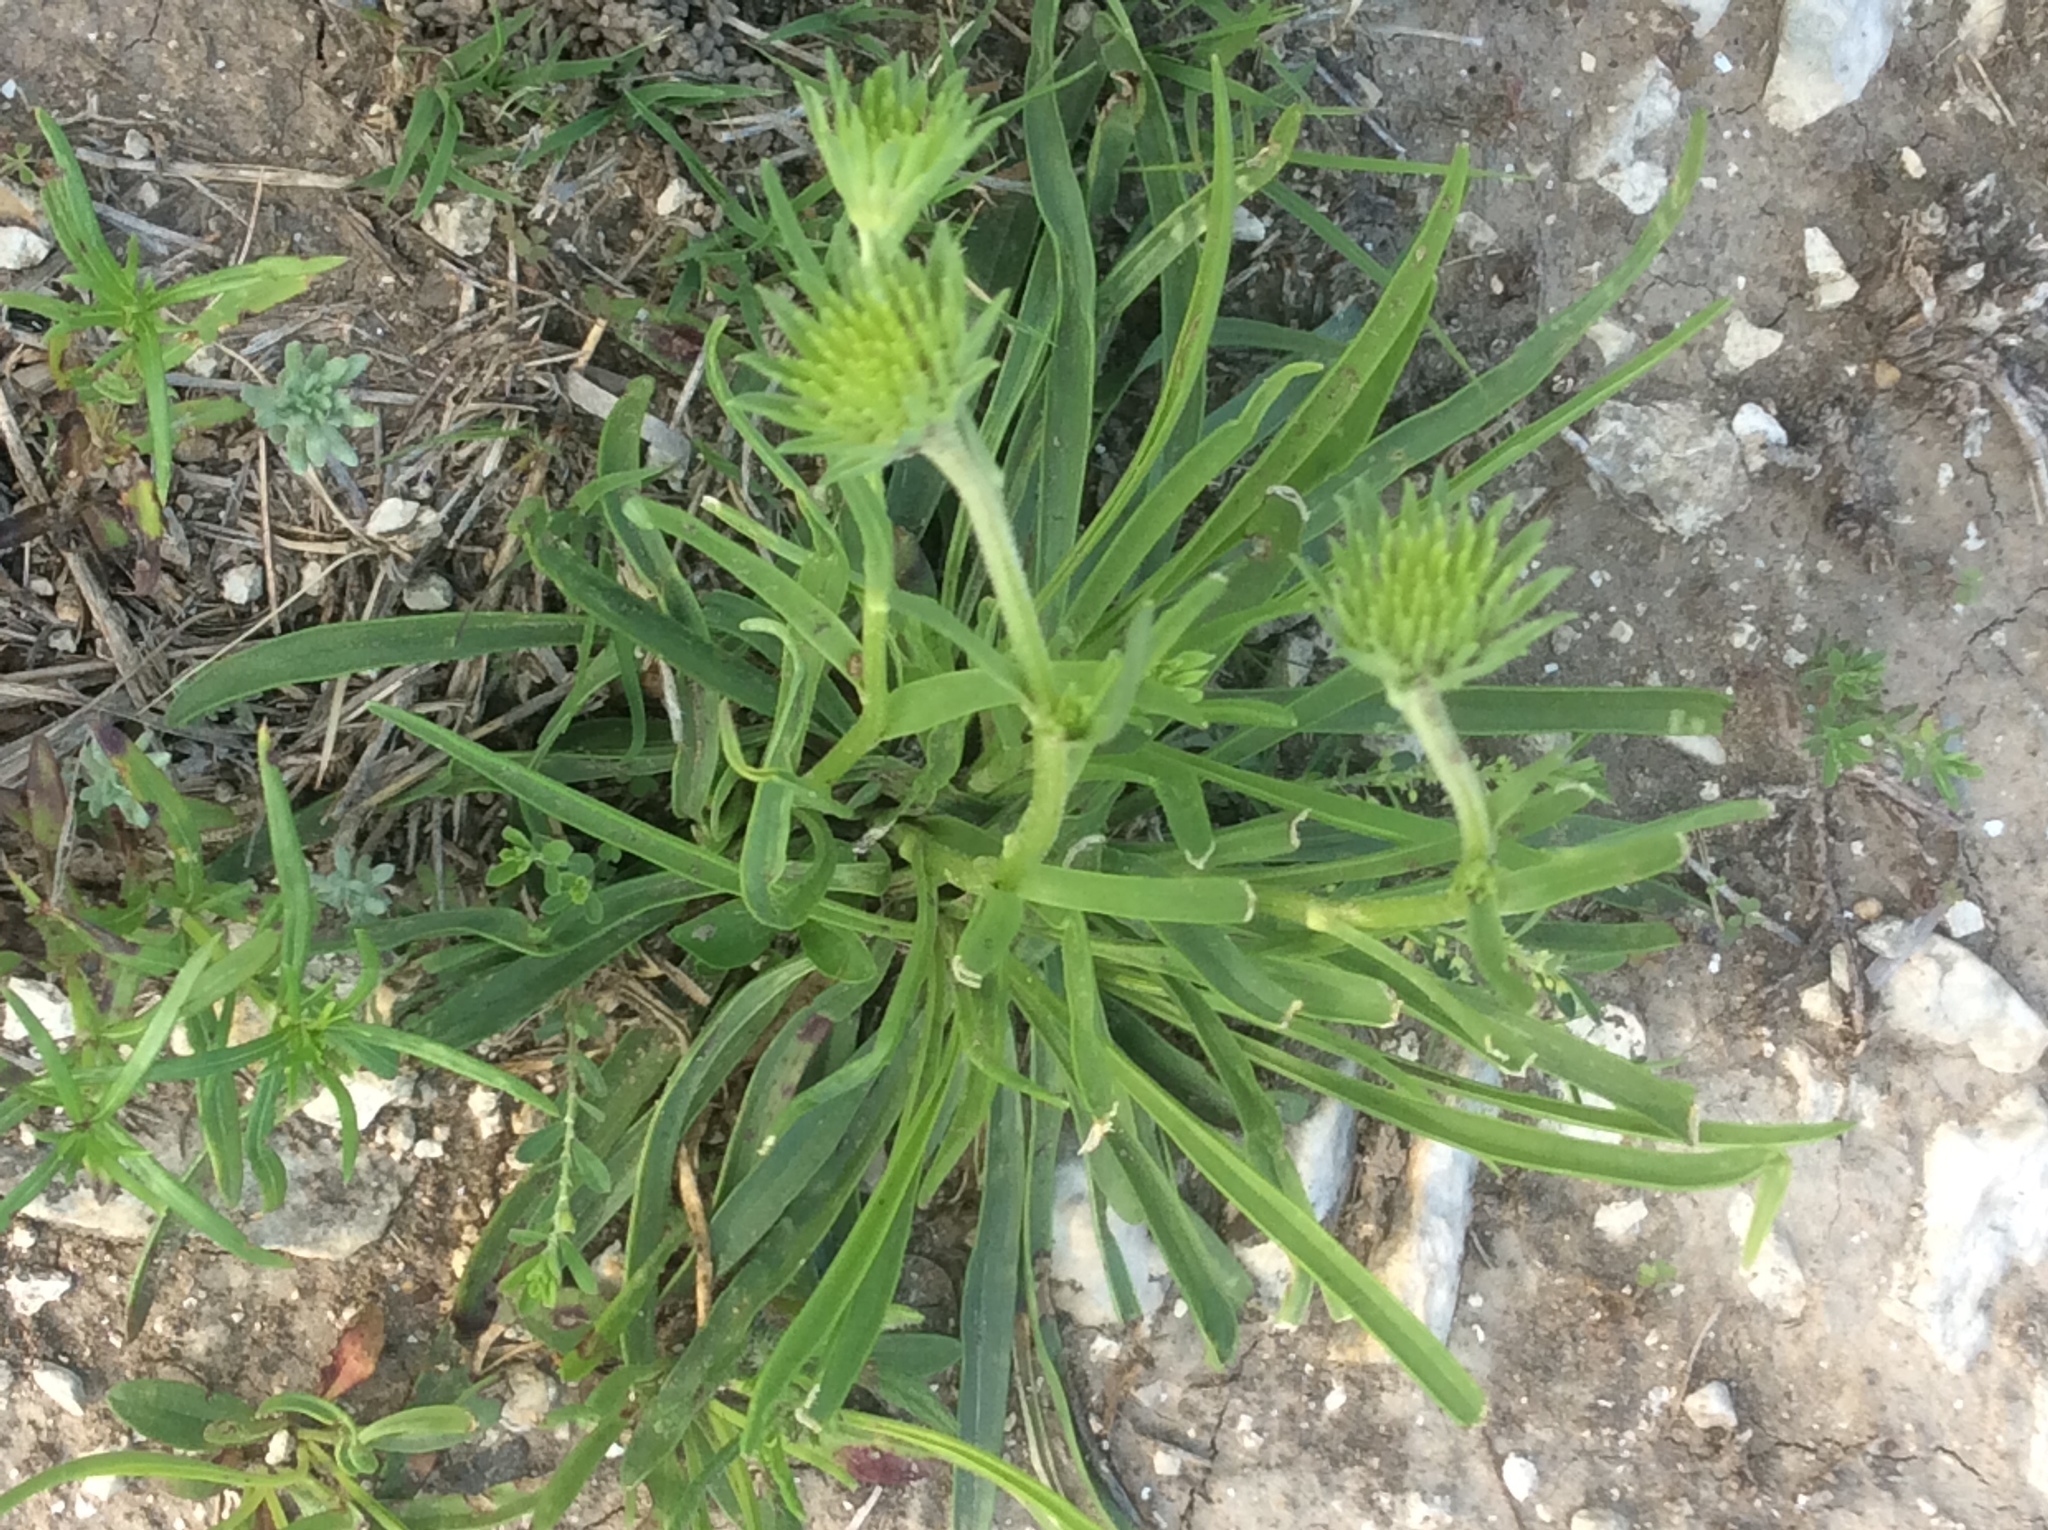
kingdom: Plantae
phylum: Tracheophyta
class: Magnoliopsida
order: Asterales
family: Asteraceae
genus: Marshallia
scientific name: Marshallia caespitosa
